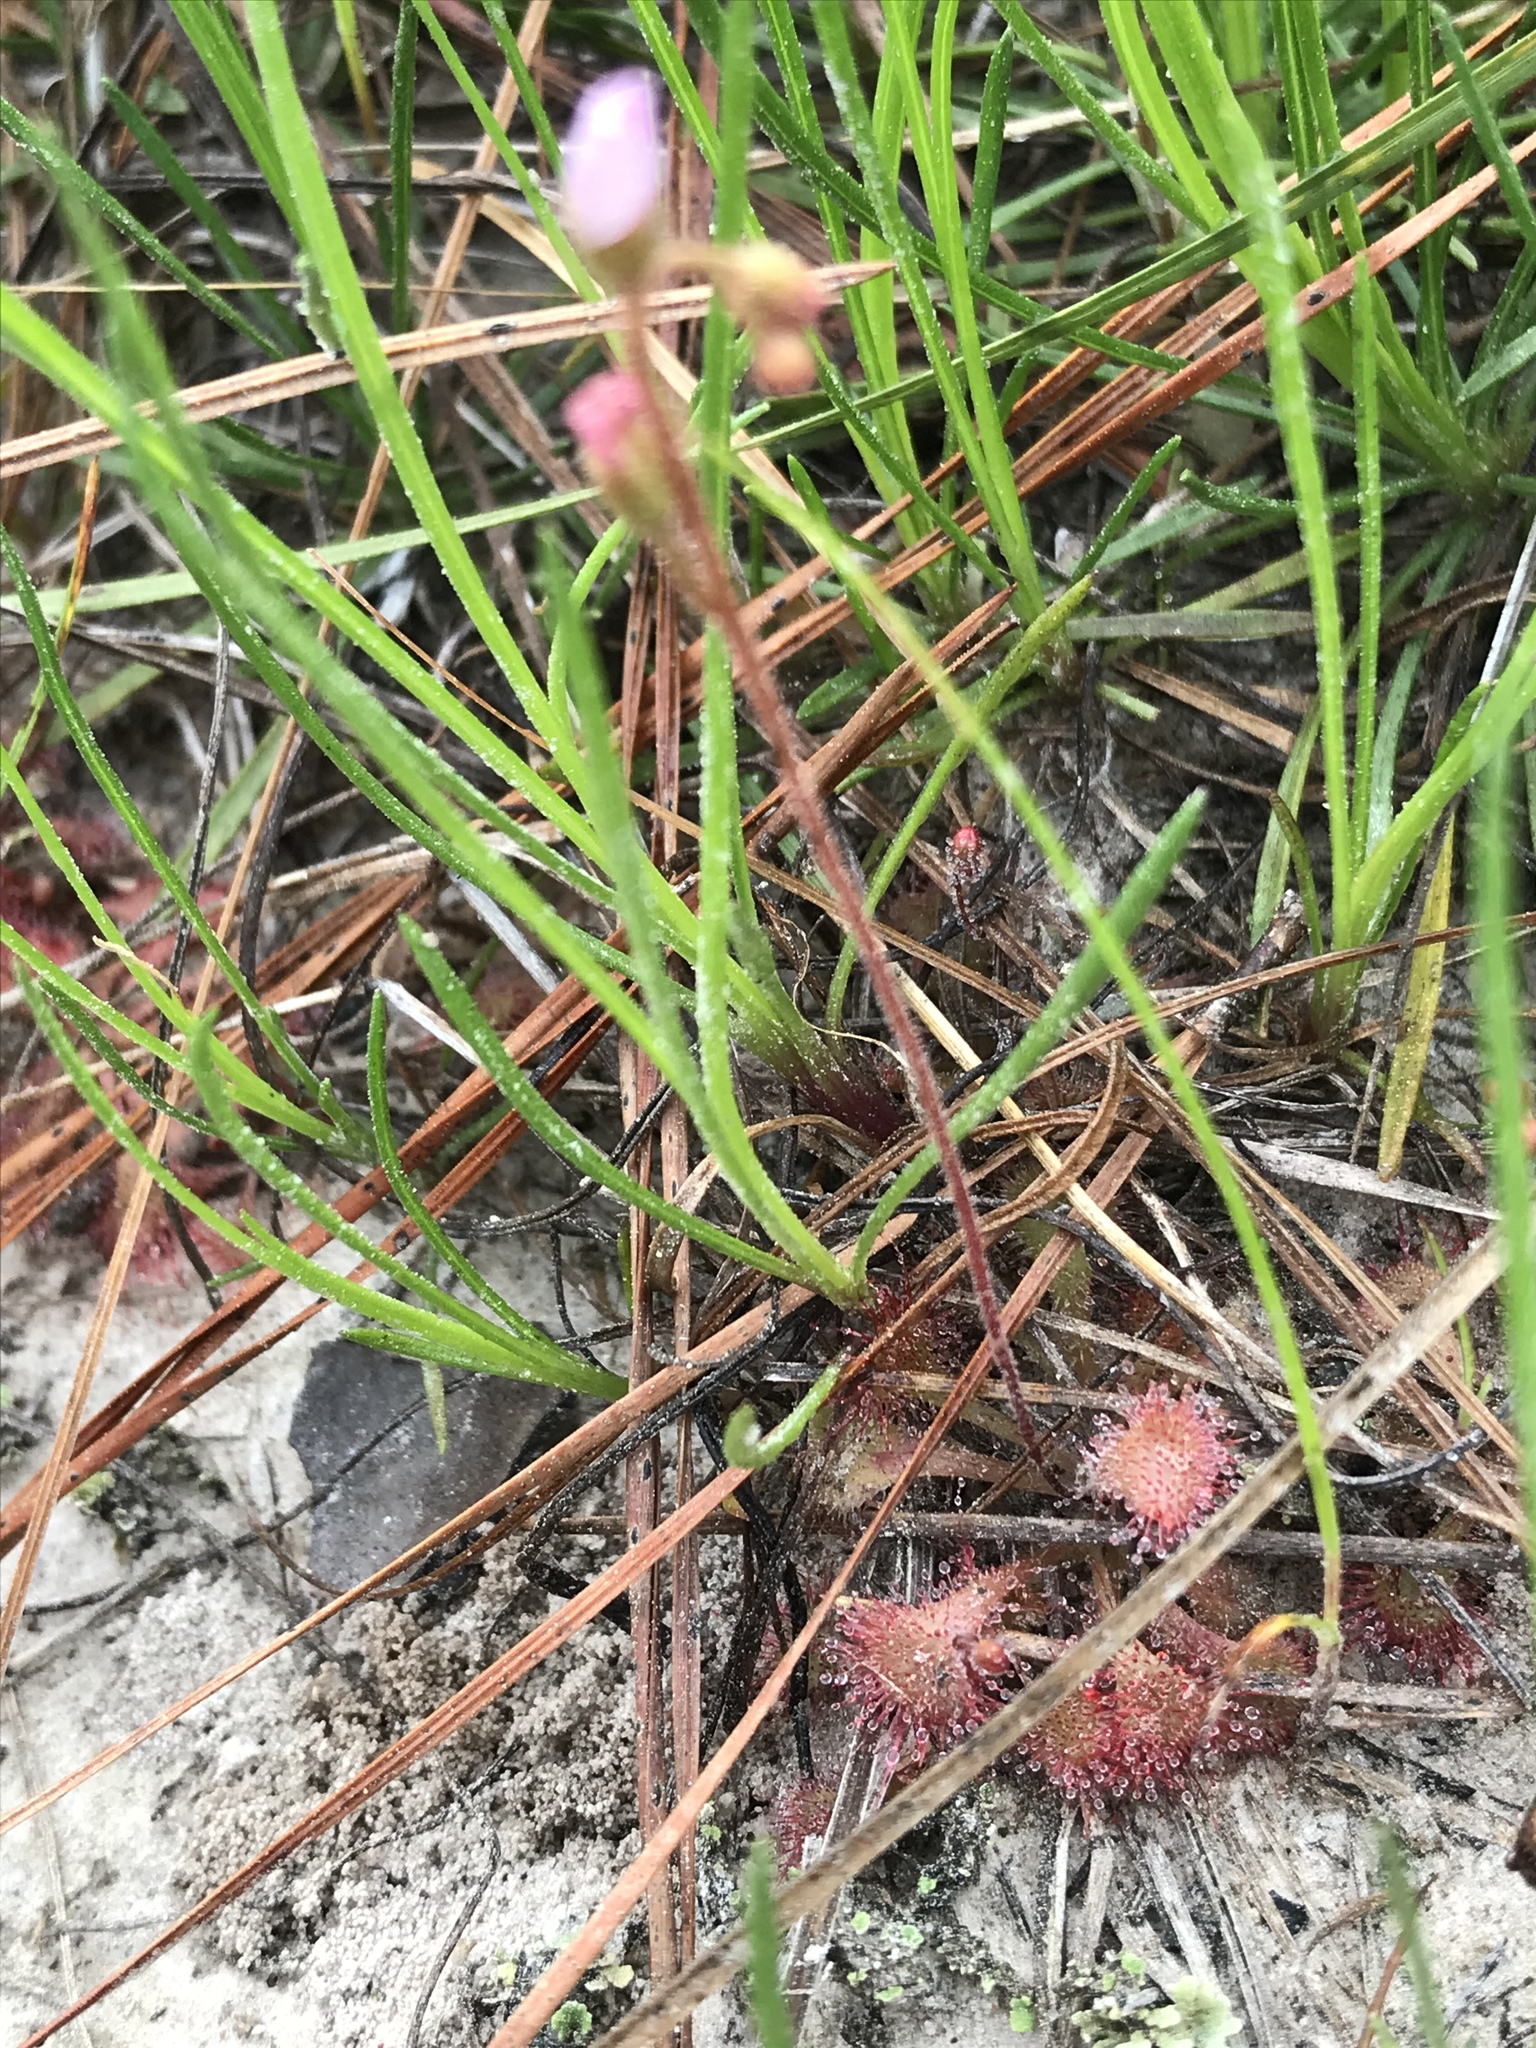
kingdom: Plantae
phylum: Tracheophyta
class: Magnoliopsida
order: Caryophyllales
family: Droseraceae
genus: Drosera
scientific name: Drosera brevifolia
